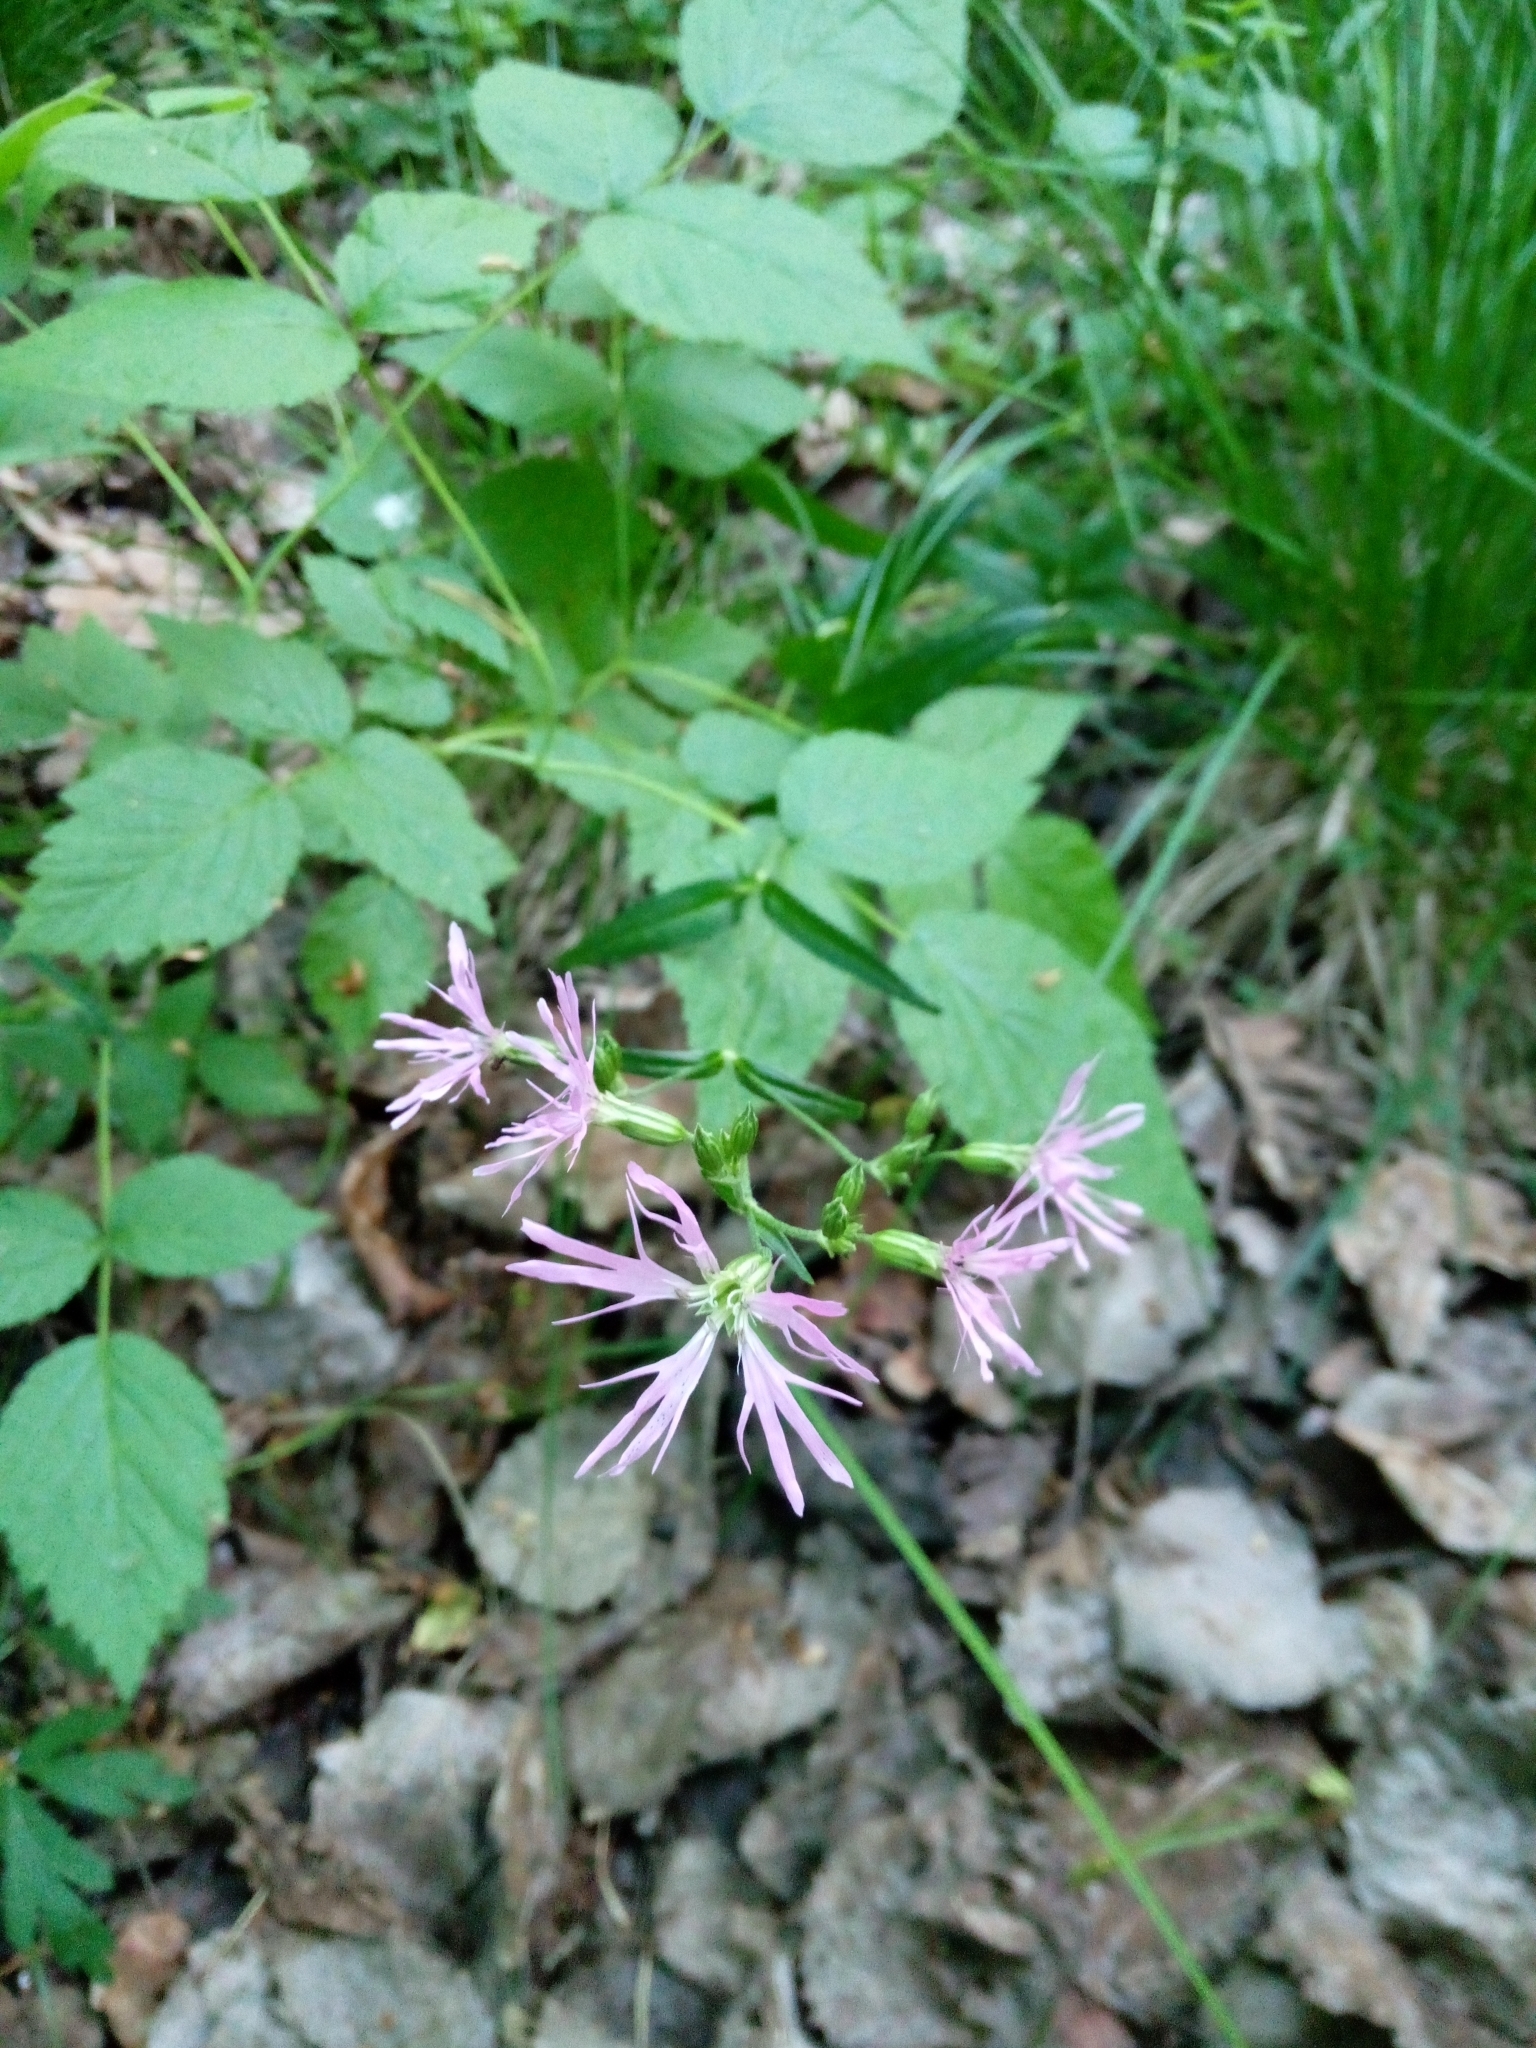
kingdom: Plantae
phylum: Tracheophyta
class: Magnoliopsida
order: Caryophyllales
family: Caryophyllaceae
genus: Silene
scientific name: Silene flos-cuculi
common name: Ragged-robin
